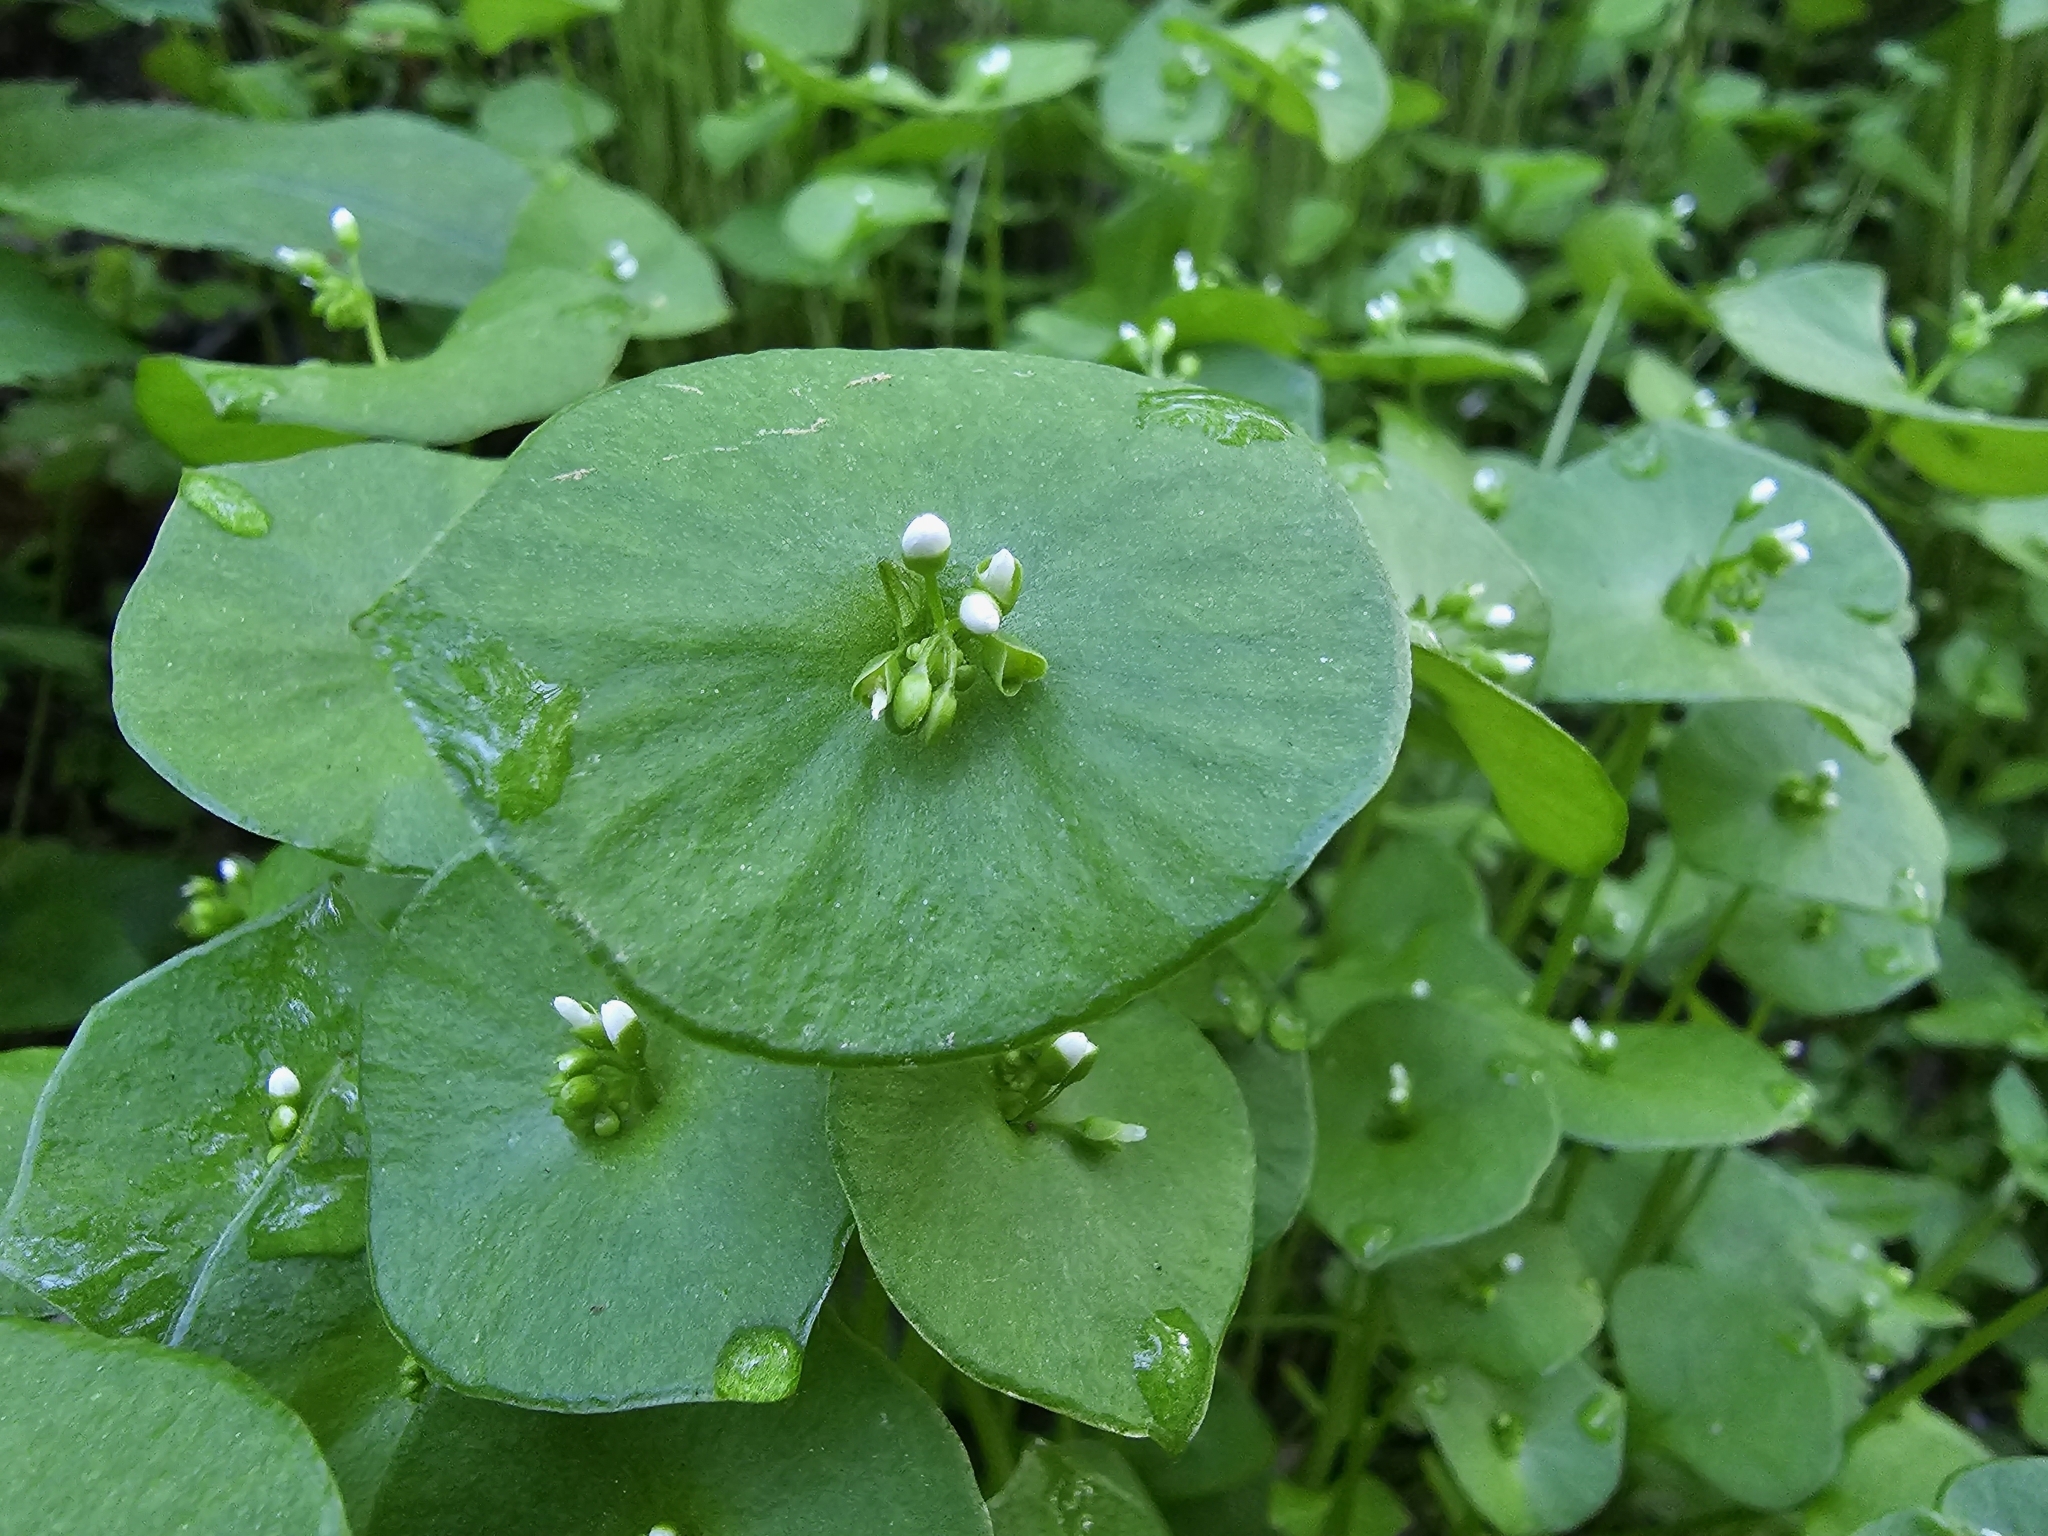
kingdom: Plantae
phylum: Tracheophyta
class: Magnoliopsida
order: Caryophyllales
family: Montiaceae
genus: Claytonia
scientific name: Claytonia perfoliata
